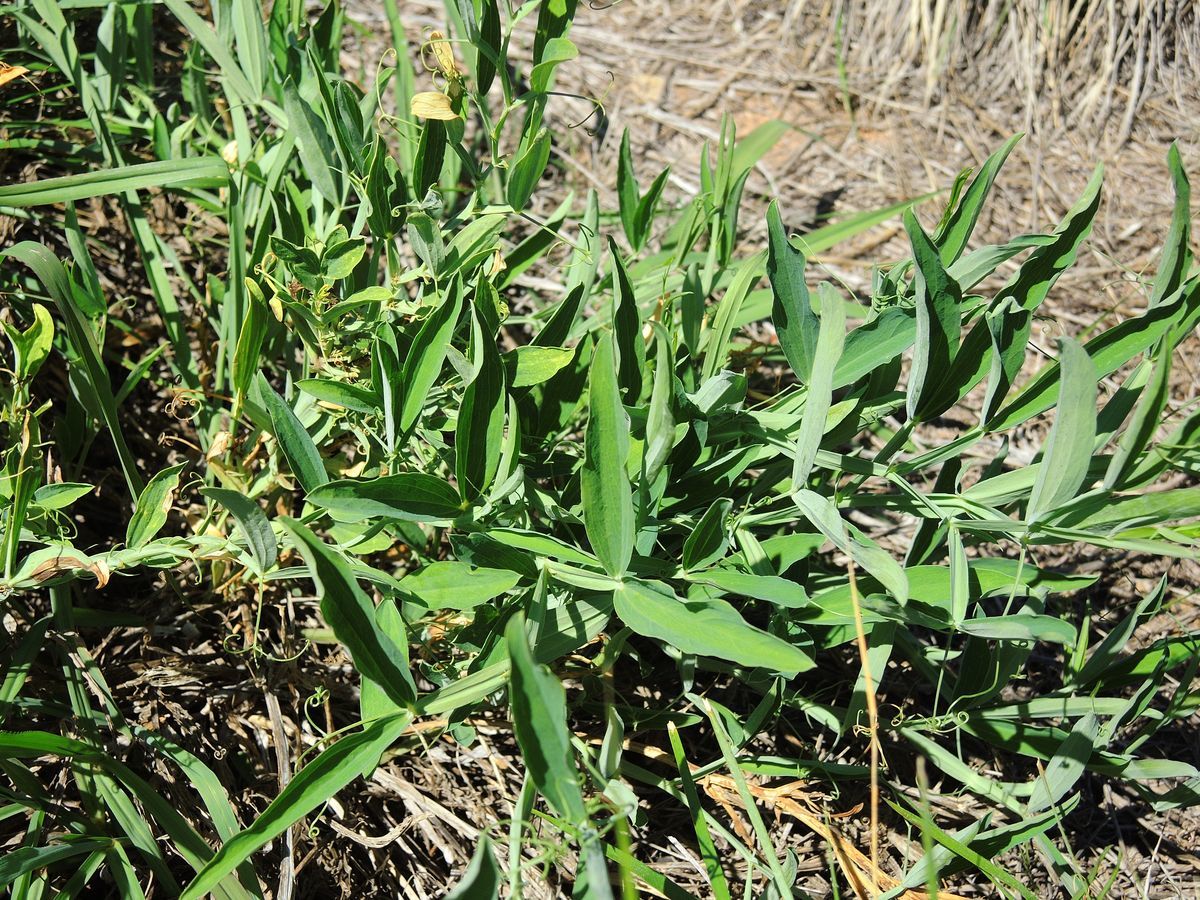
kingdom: Plantae
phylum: Tracheophyta
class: Magnoliopsida
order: Fabales
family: Fabaceae
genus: Lathyrus
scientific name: Lathyrus latifolius
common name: Perennial pea
